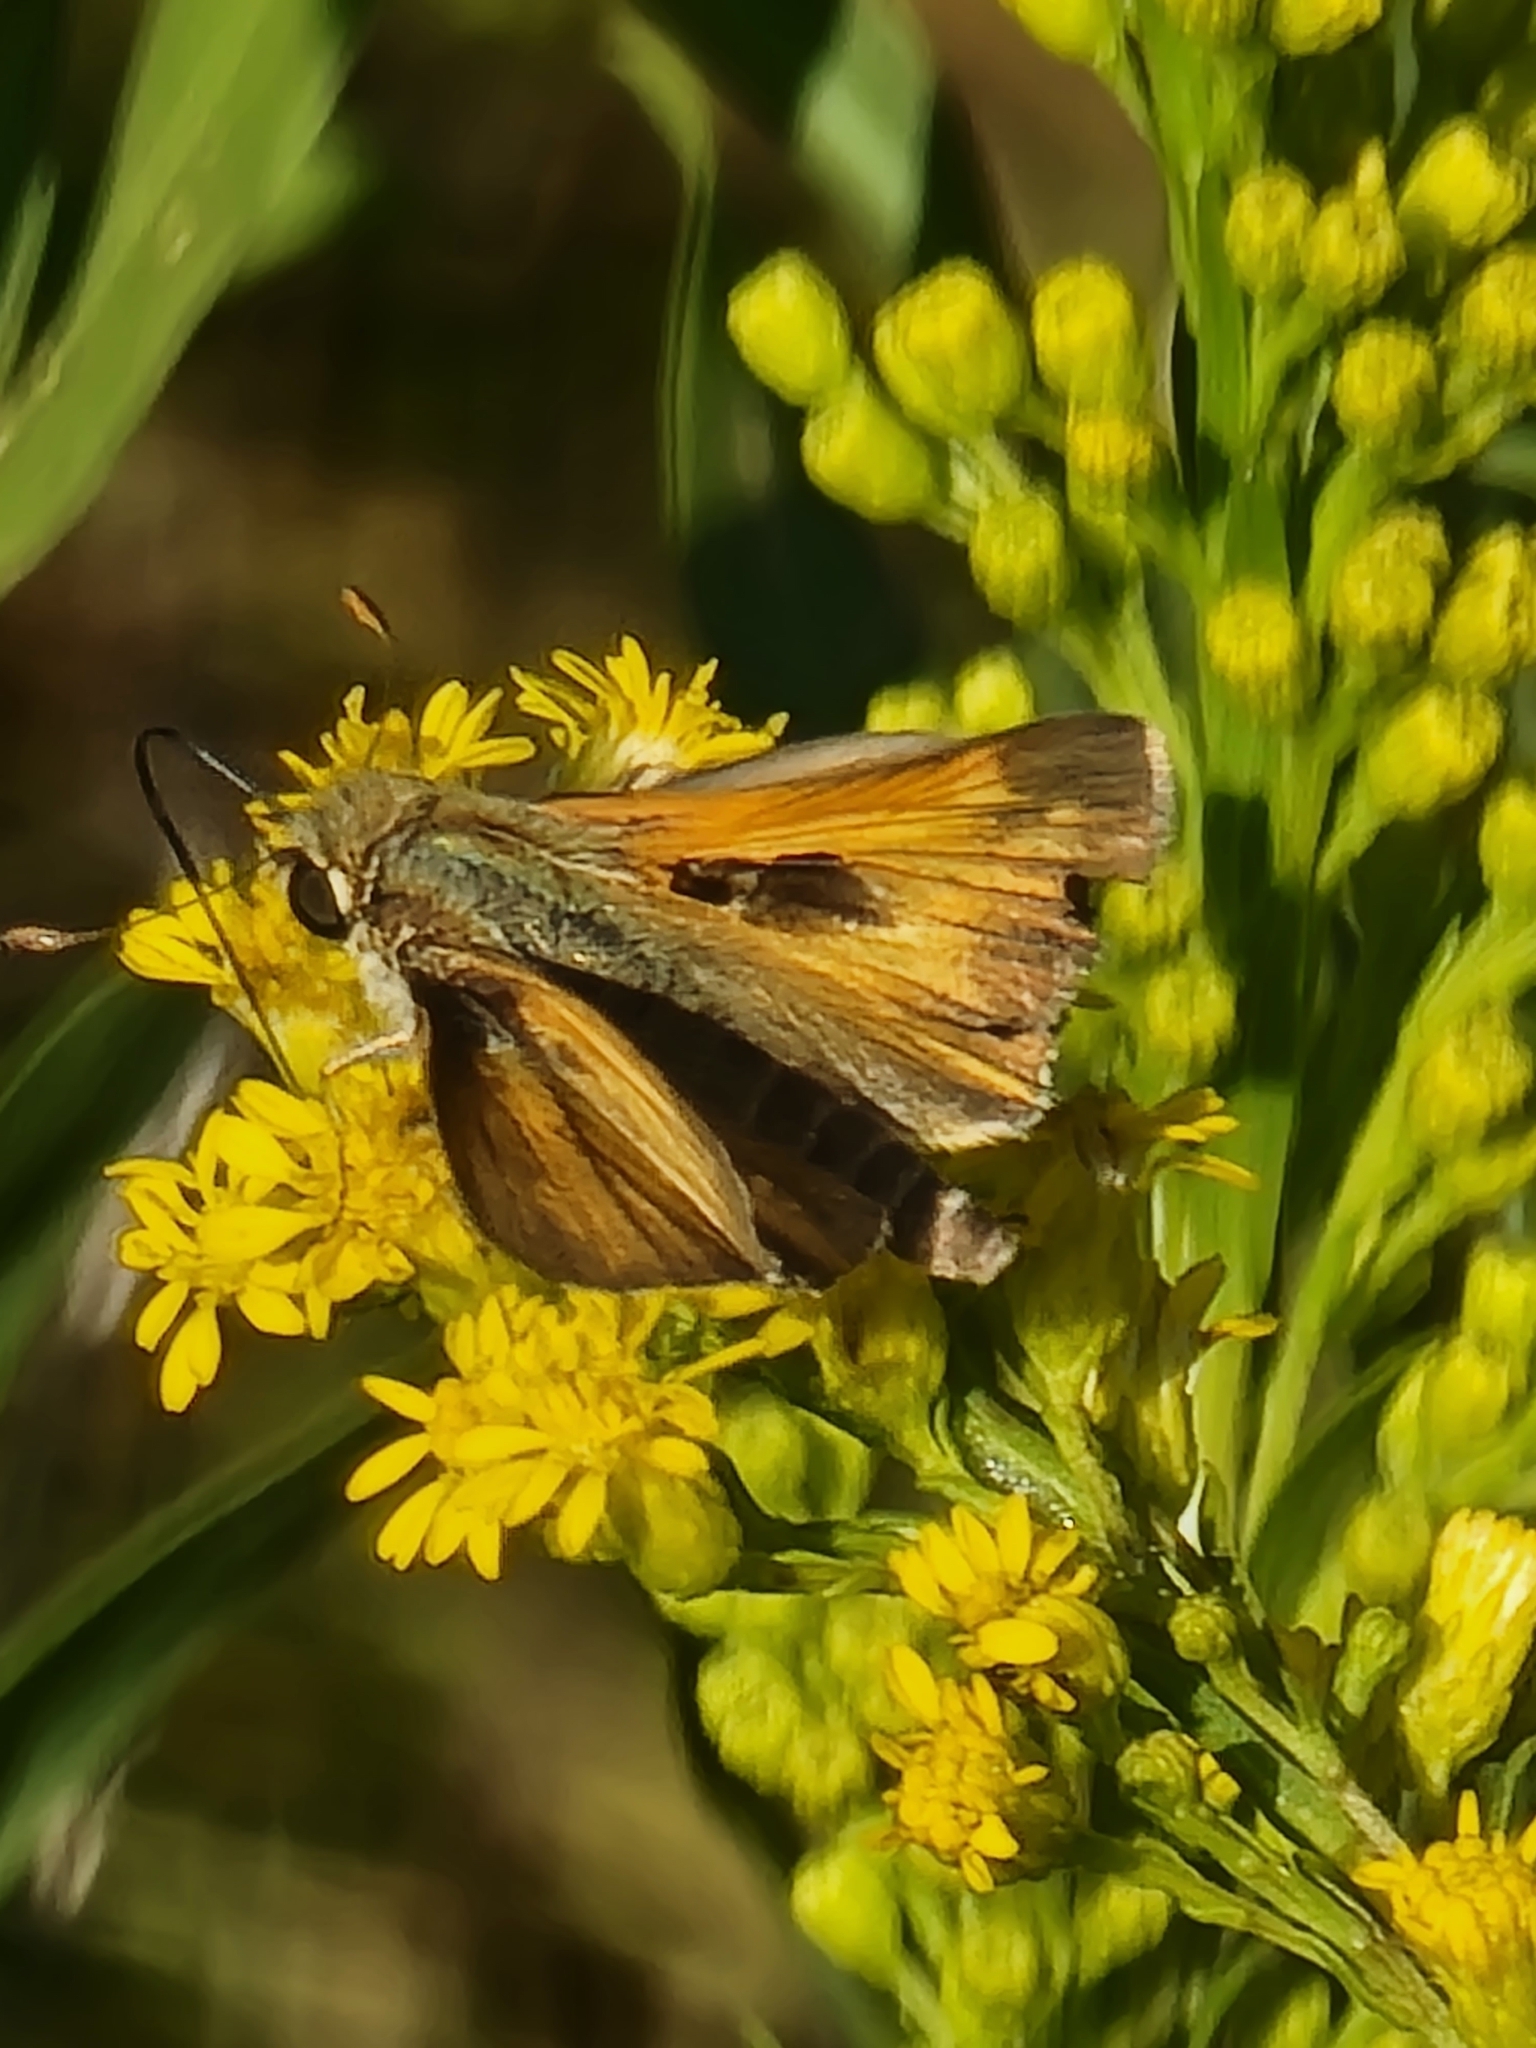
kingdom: Animalia
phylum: Arthropoda
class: Insecta
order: Lepidoptera
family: Hesperiidae
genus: Atalopedes
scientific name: Atalopedes
